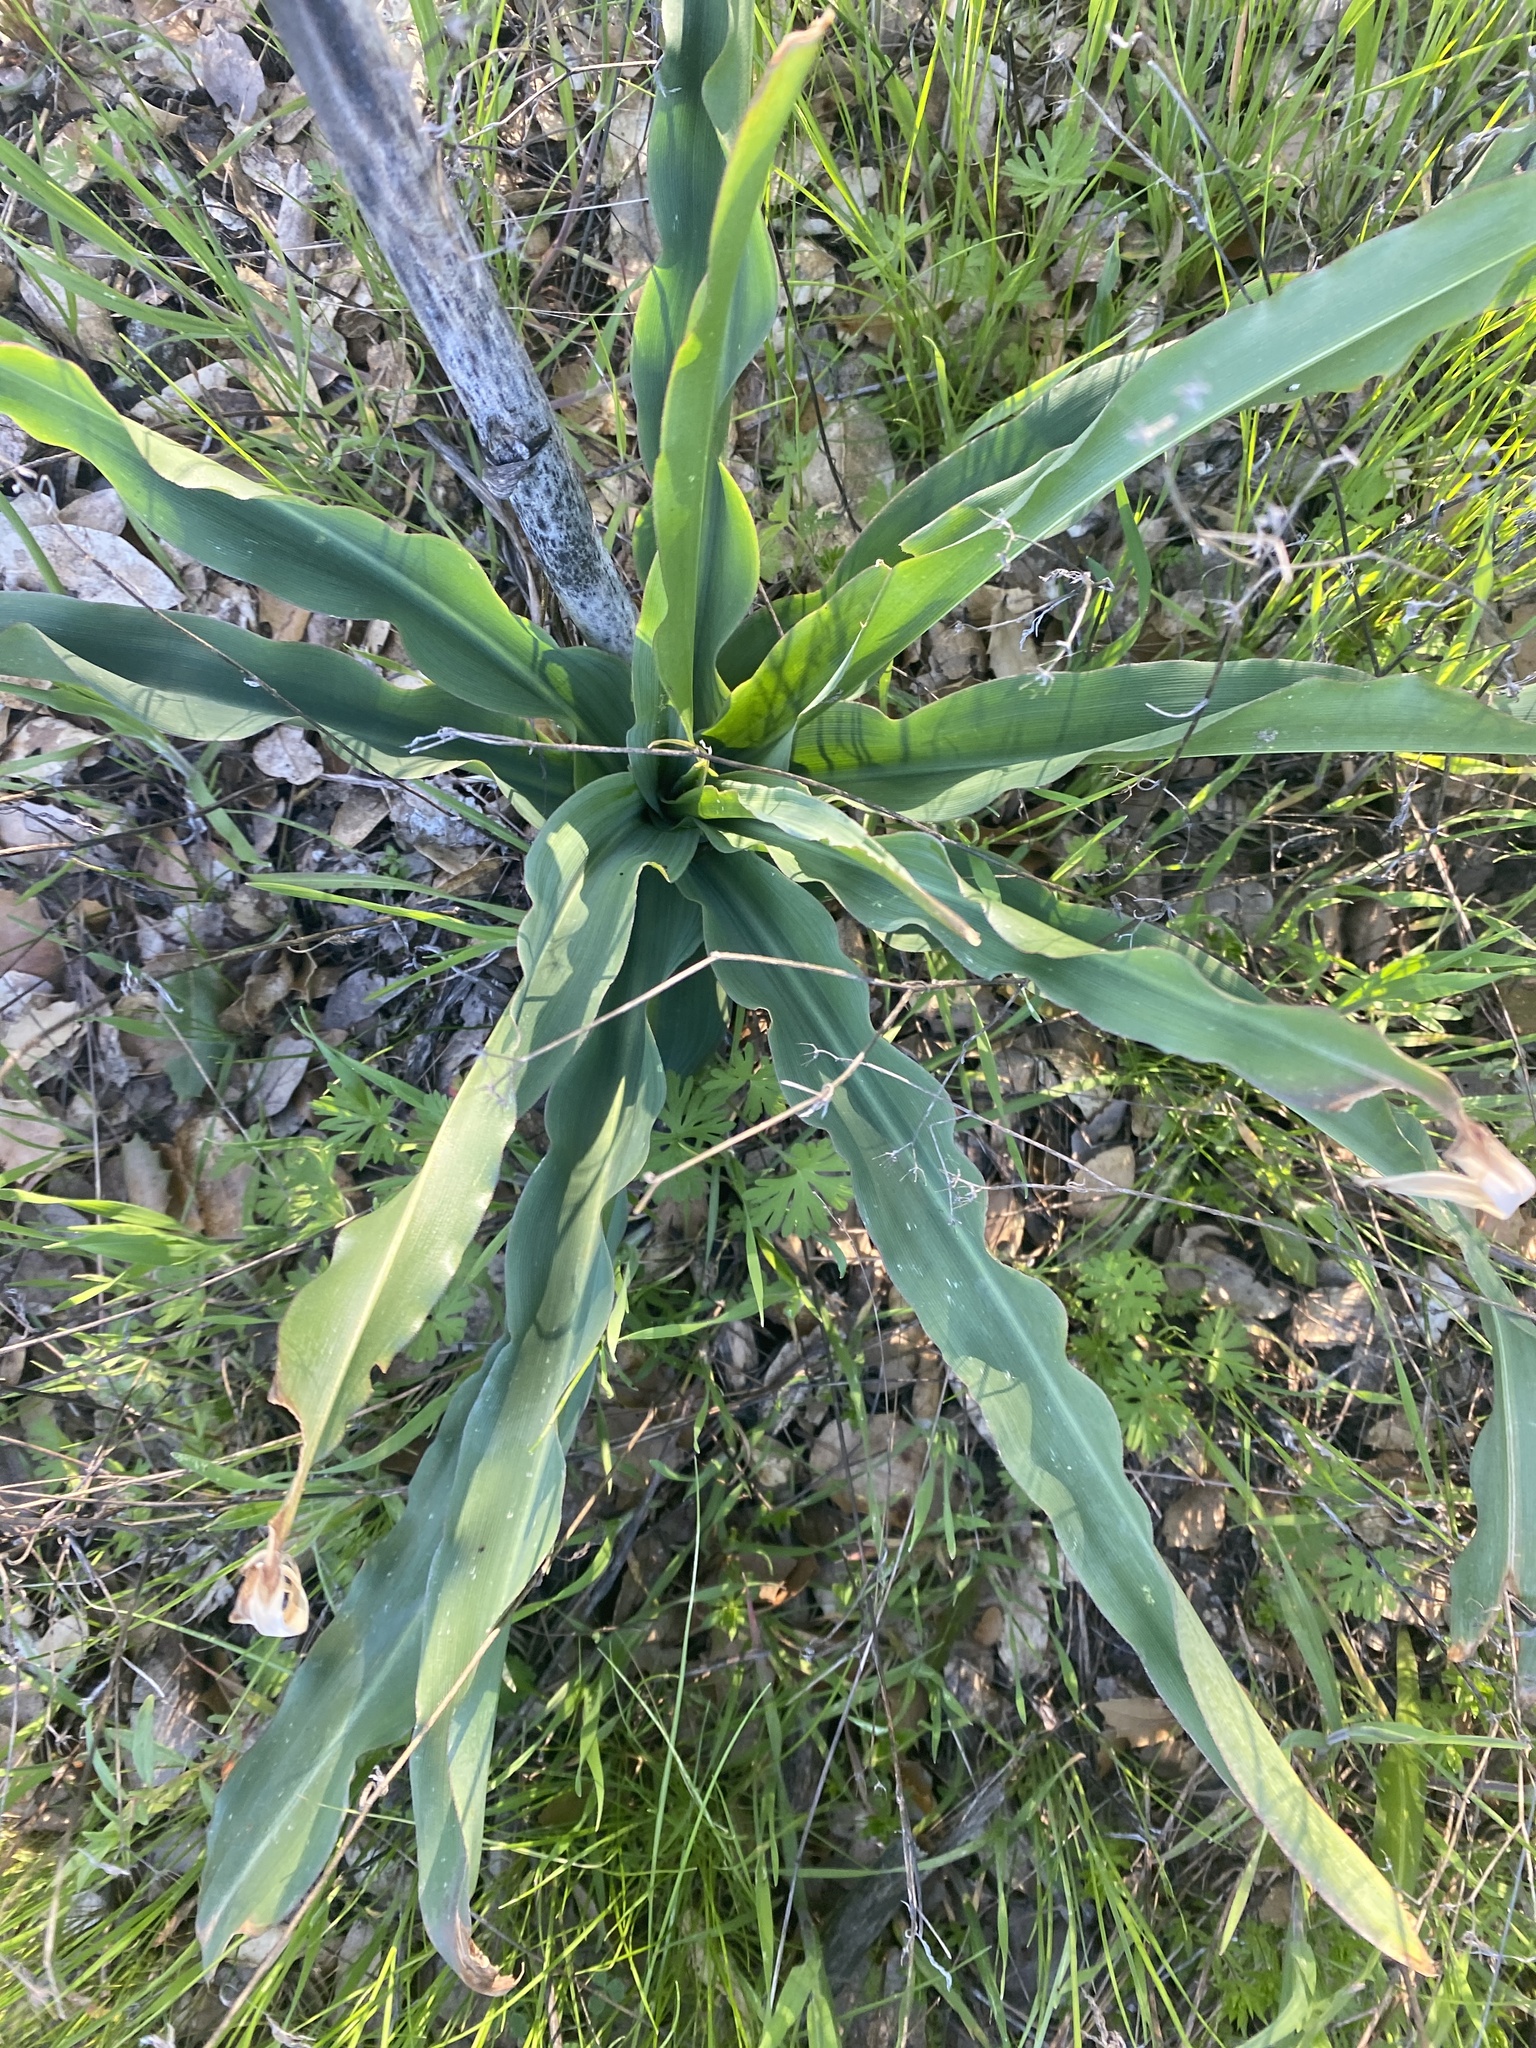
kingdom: Plantae
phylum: Tracheophyta
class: Liliopsida
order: Asparagales
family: Asparagaceae
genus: Chlorogalum
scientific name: Chlorogalum pomeridianum
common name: Amole
